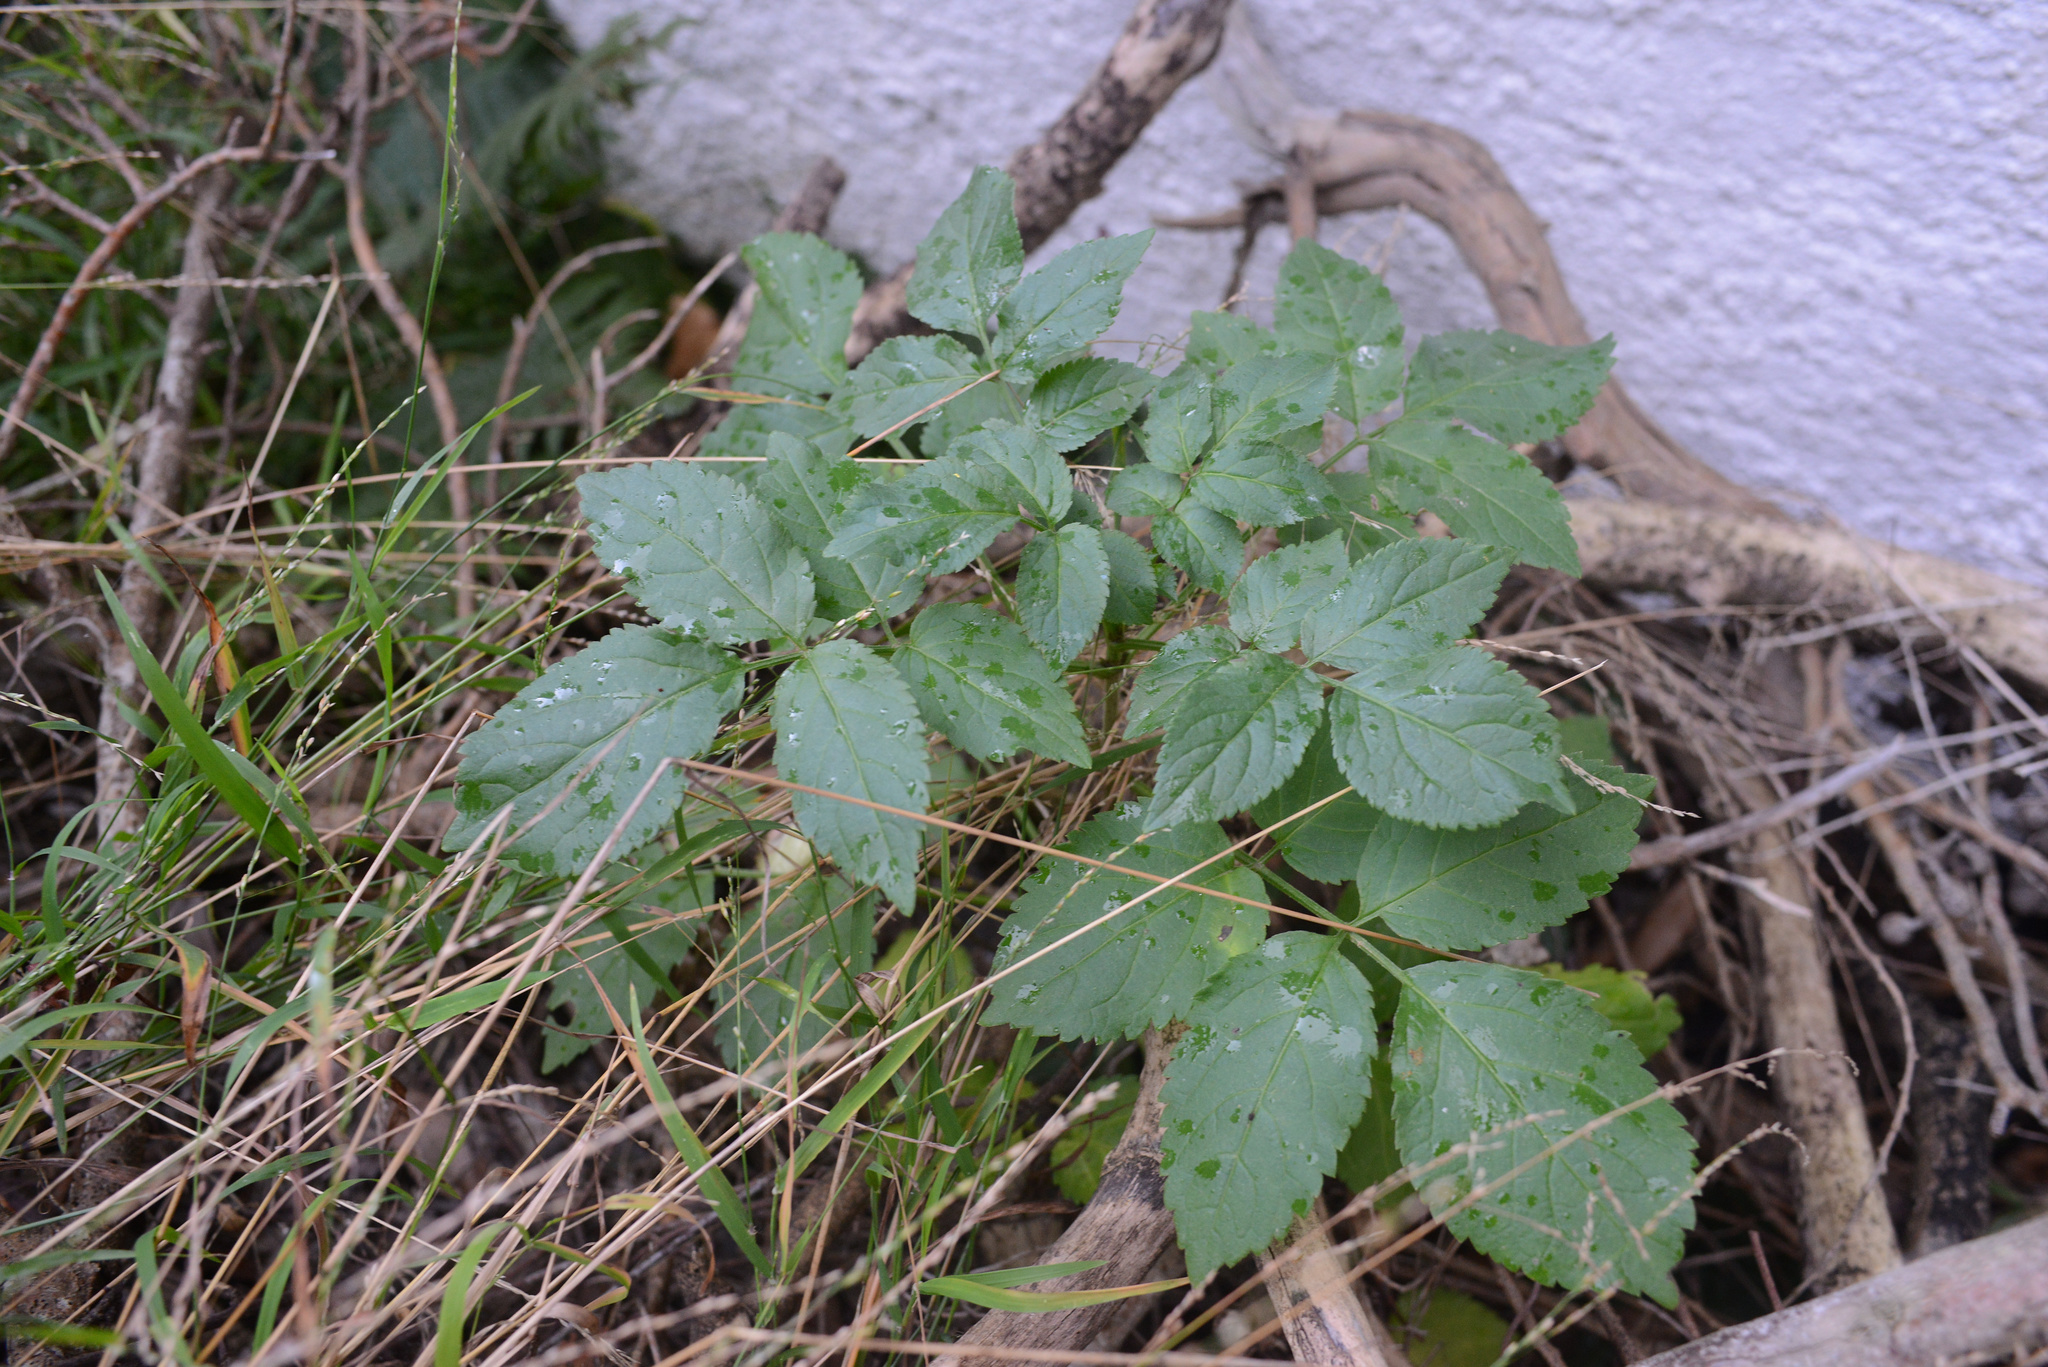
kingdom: Plantae
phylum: Tracheophyta
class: Magnoliopsida
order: Dipsacales
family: Viburnaceae
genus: Sambucus
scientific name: Sambucus nigra
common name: Elder
